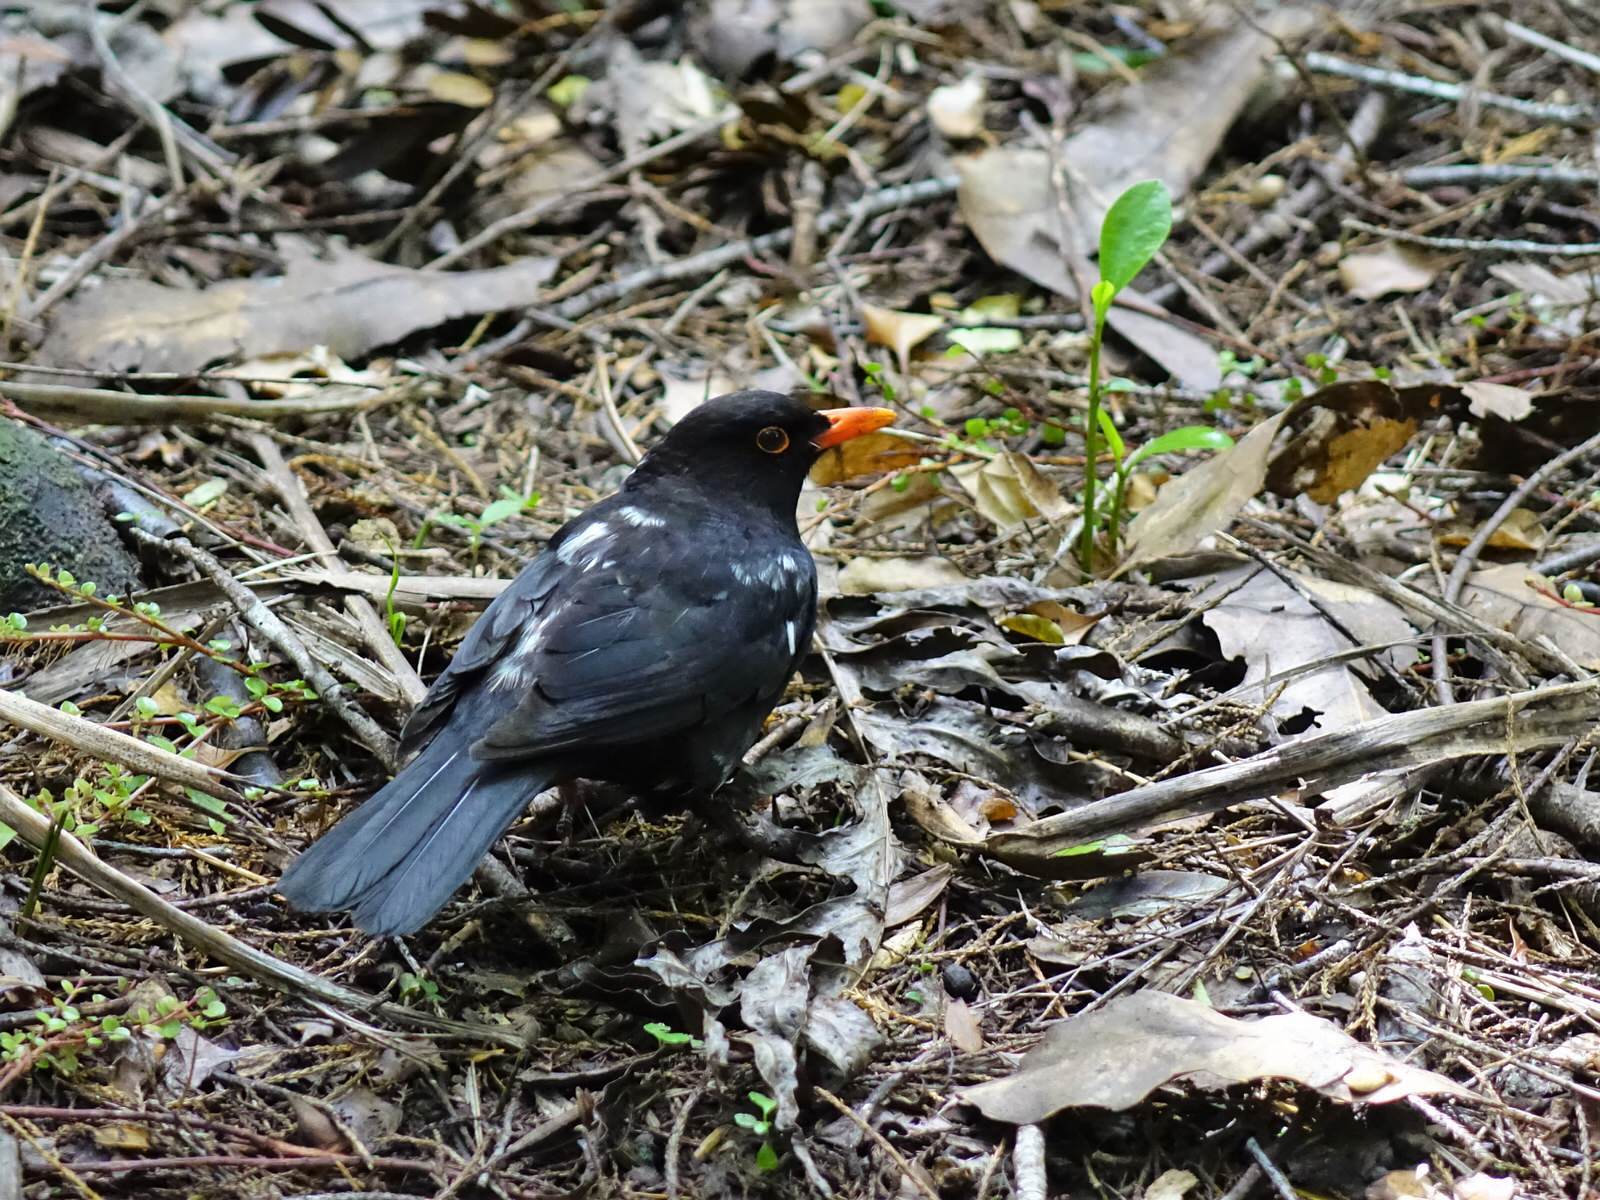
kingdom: Animalia
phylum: Chordata
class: Aves
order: Passeriformes
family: Turdidae
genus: Turdus
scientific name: Turdus merula
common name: Common blackbird
